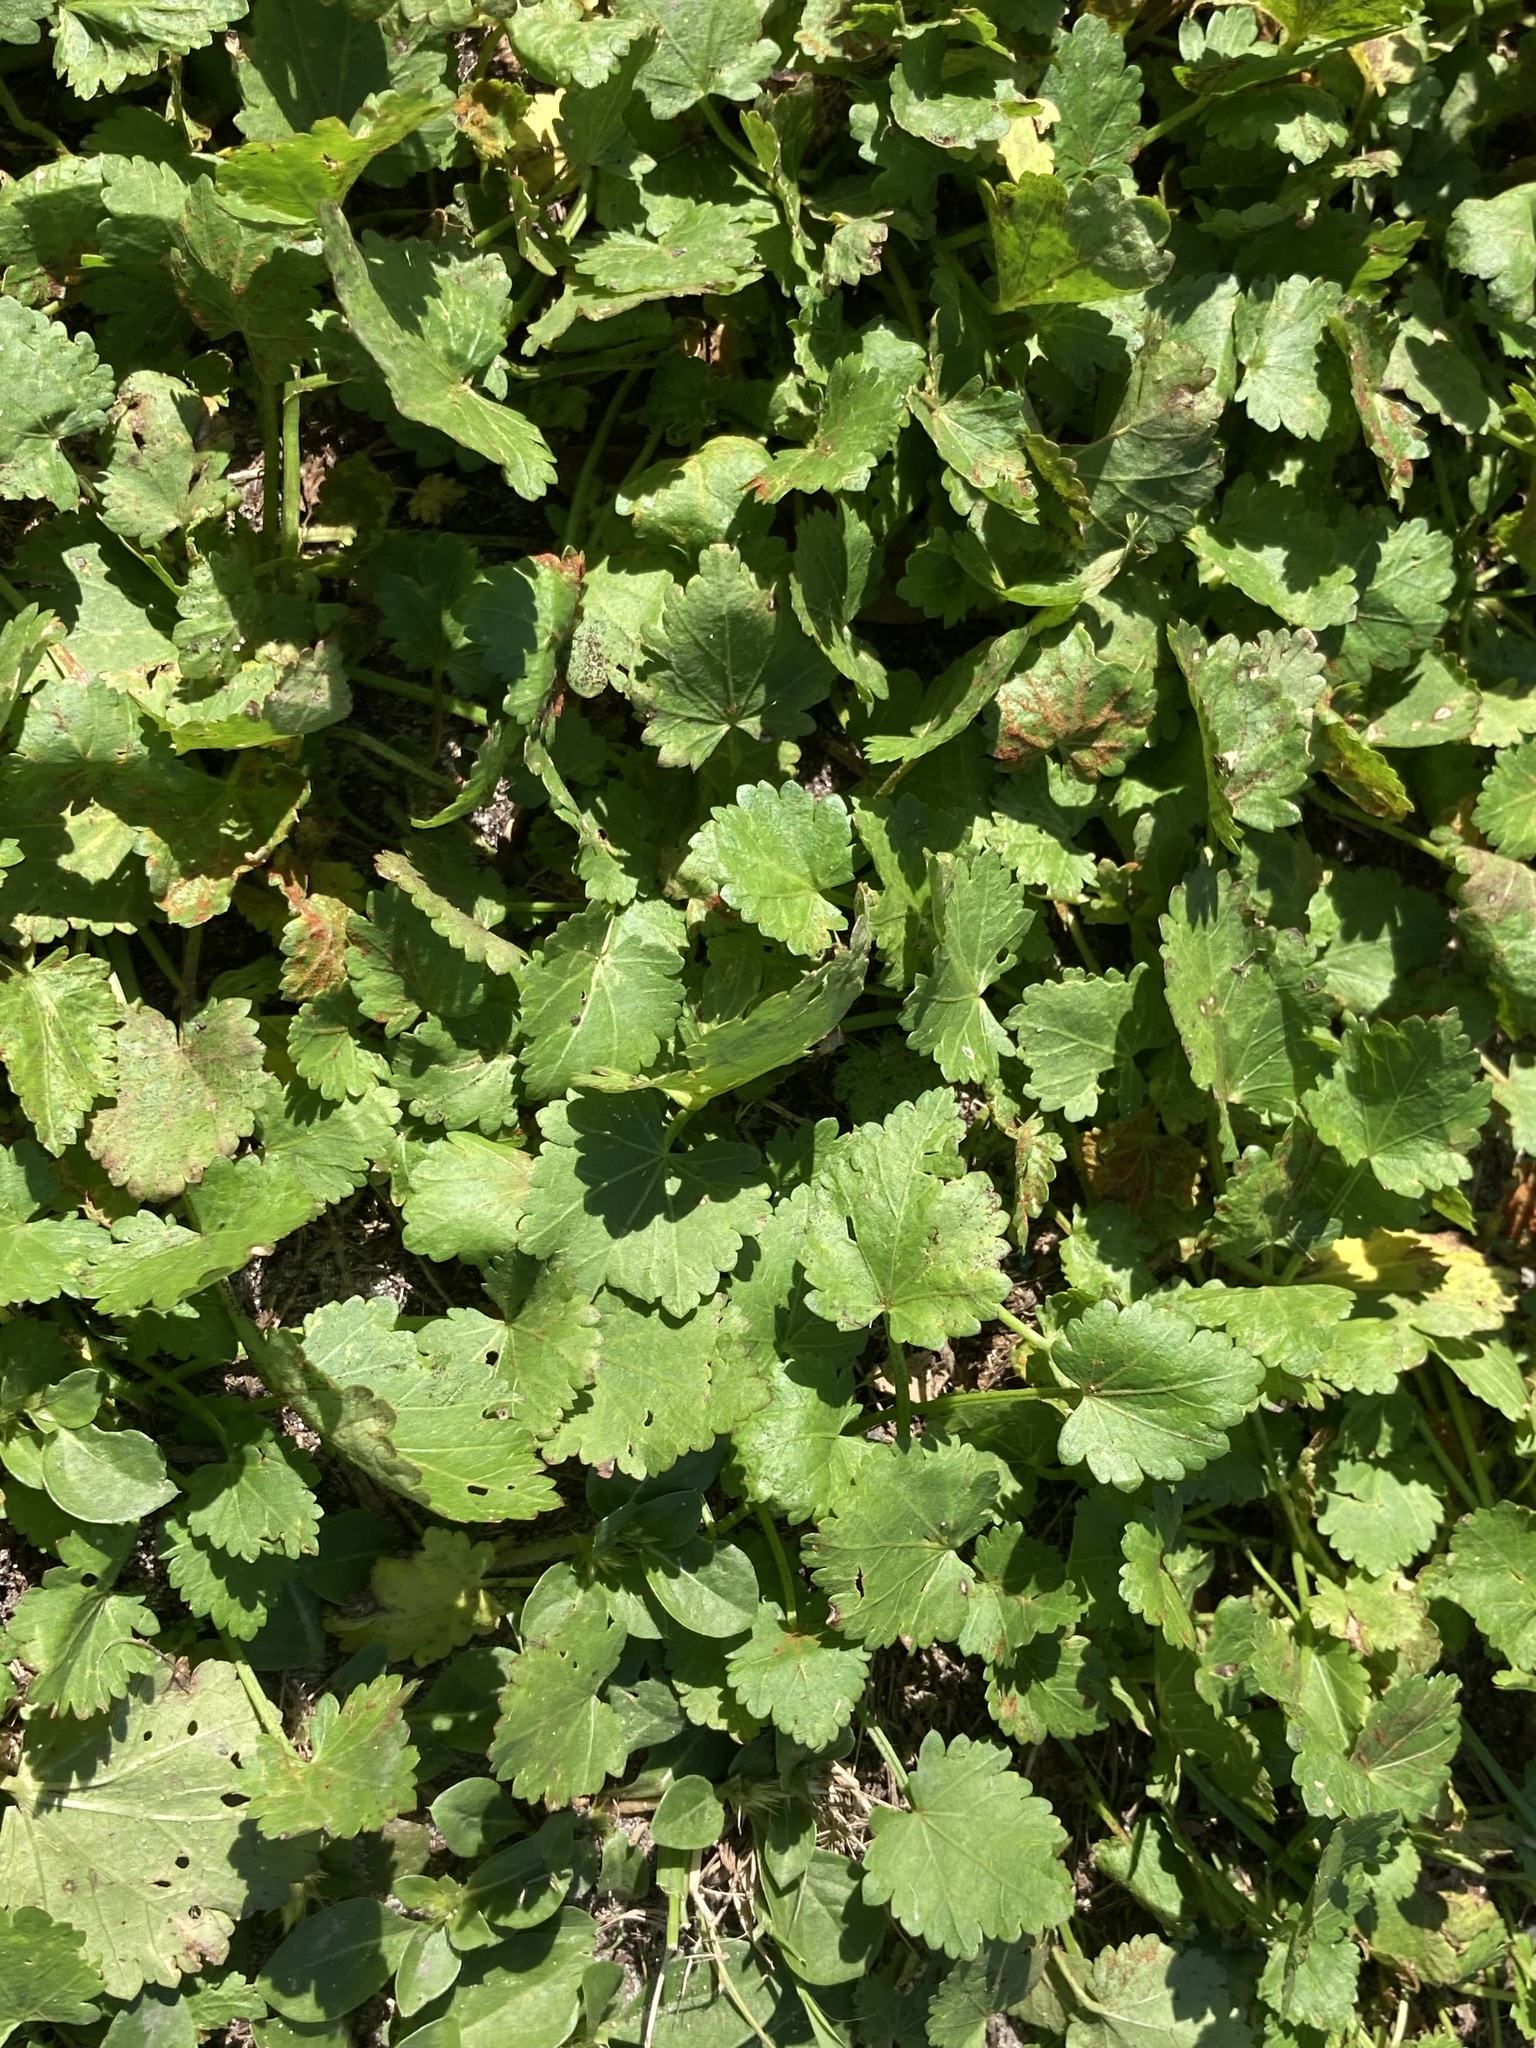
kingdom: Plantae
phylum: Tracheophyta
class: Magnoliopsida
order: Malvales
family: Malvaceae
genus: Modiola
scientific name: Modiola caroliniana
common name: Carolina bristlemallow
